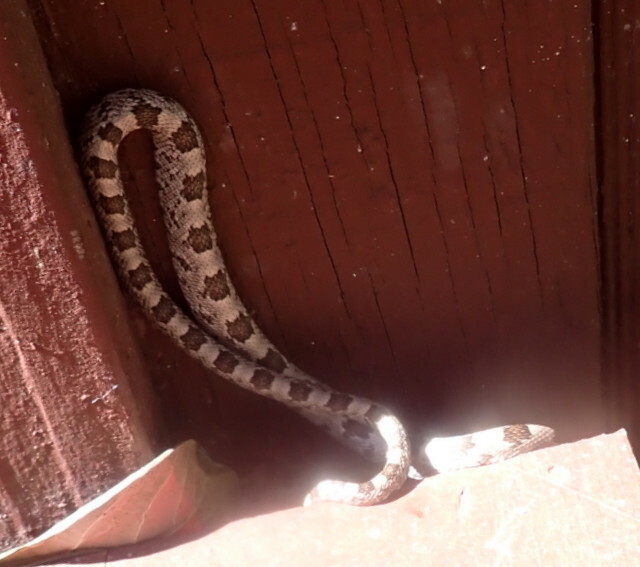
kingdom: Animalia
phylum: Chordata
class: Squamata
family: Colubridae
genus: Pantherophis
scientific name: Pantherophis
